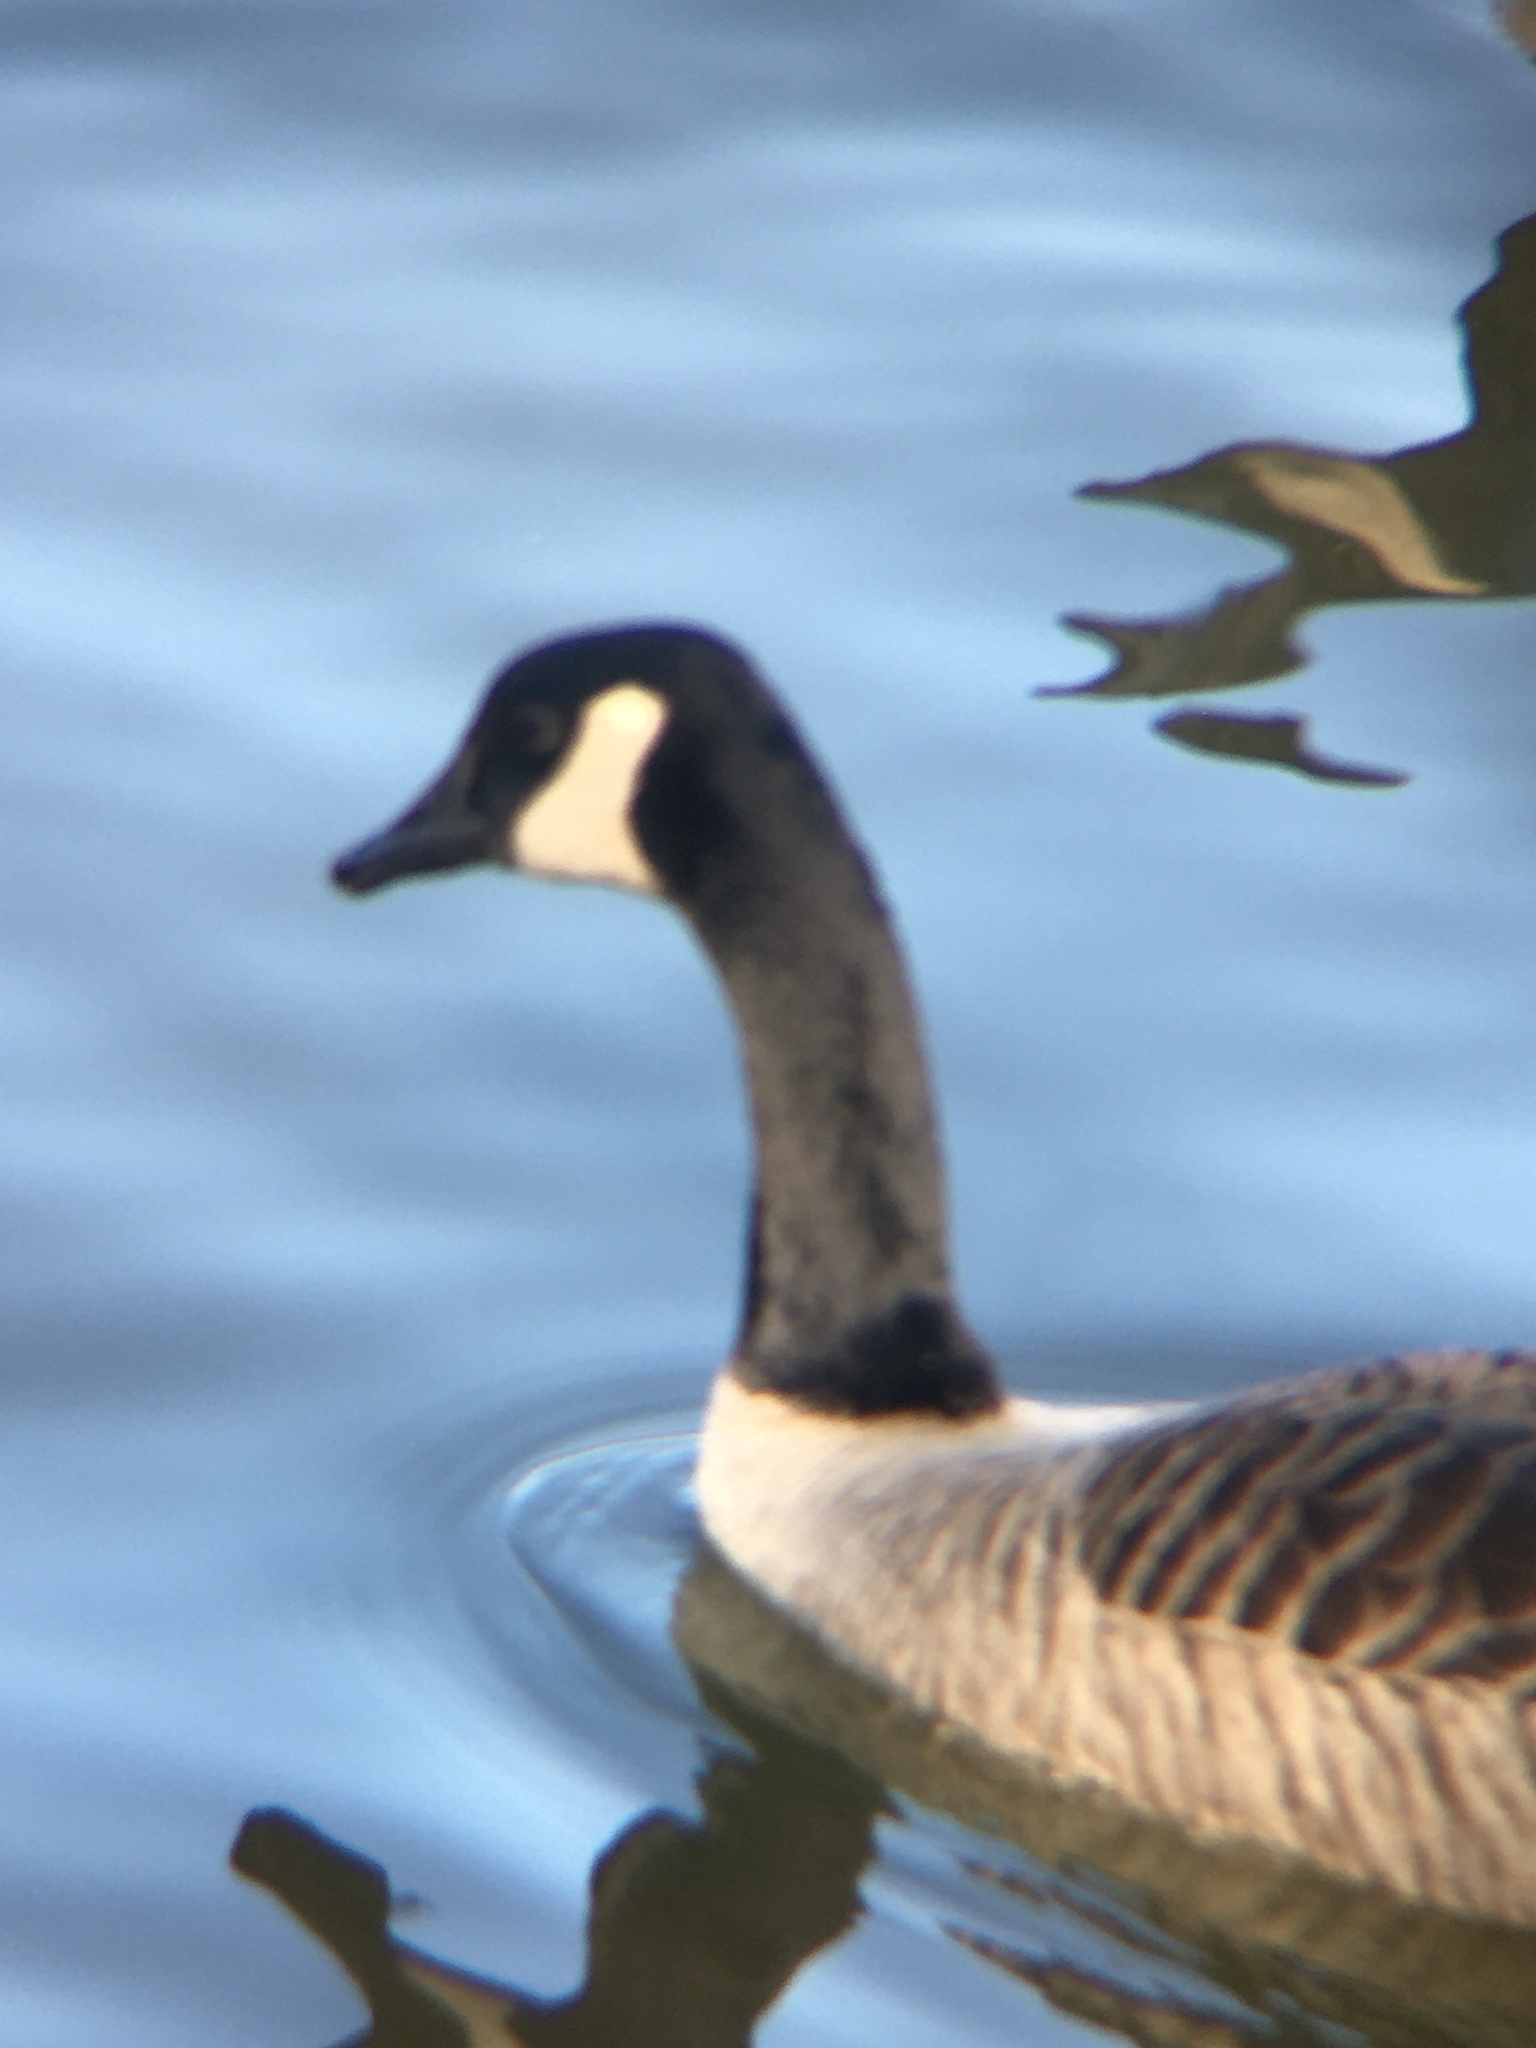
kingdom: Animalia
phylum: Chordata
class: Aves
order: Anseriformes
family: Anatidae
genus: Branta
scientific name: Branta canadensis
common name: Canada goose
